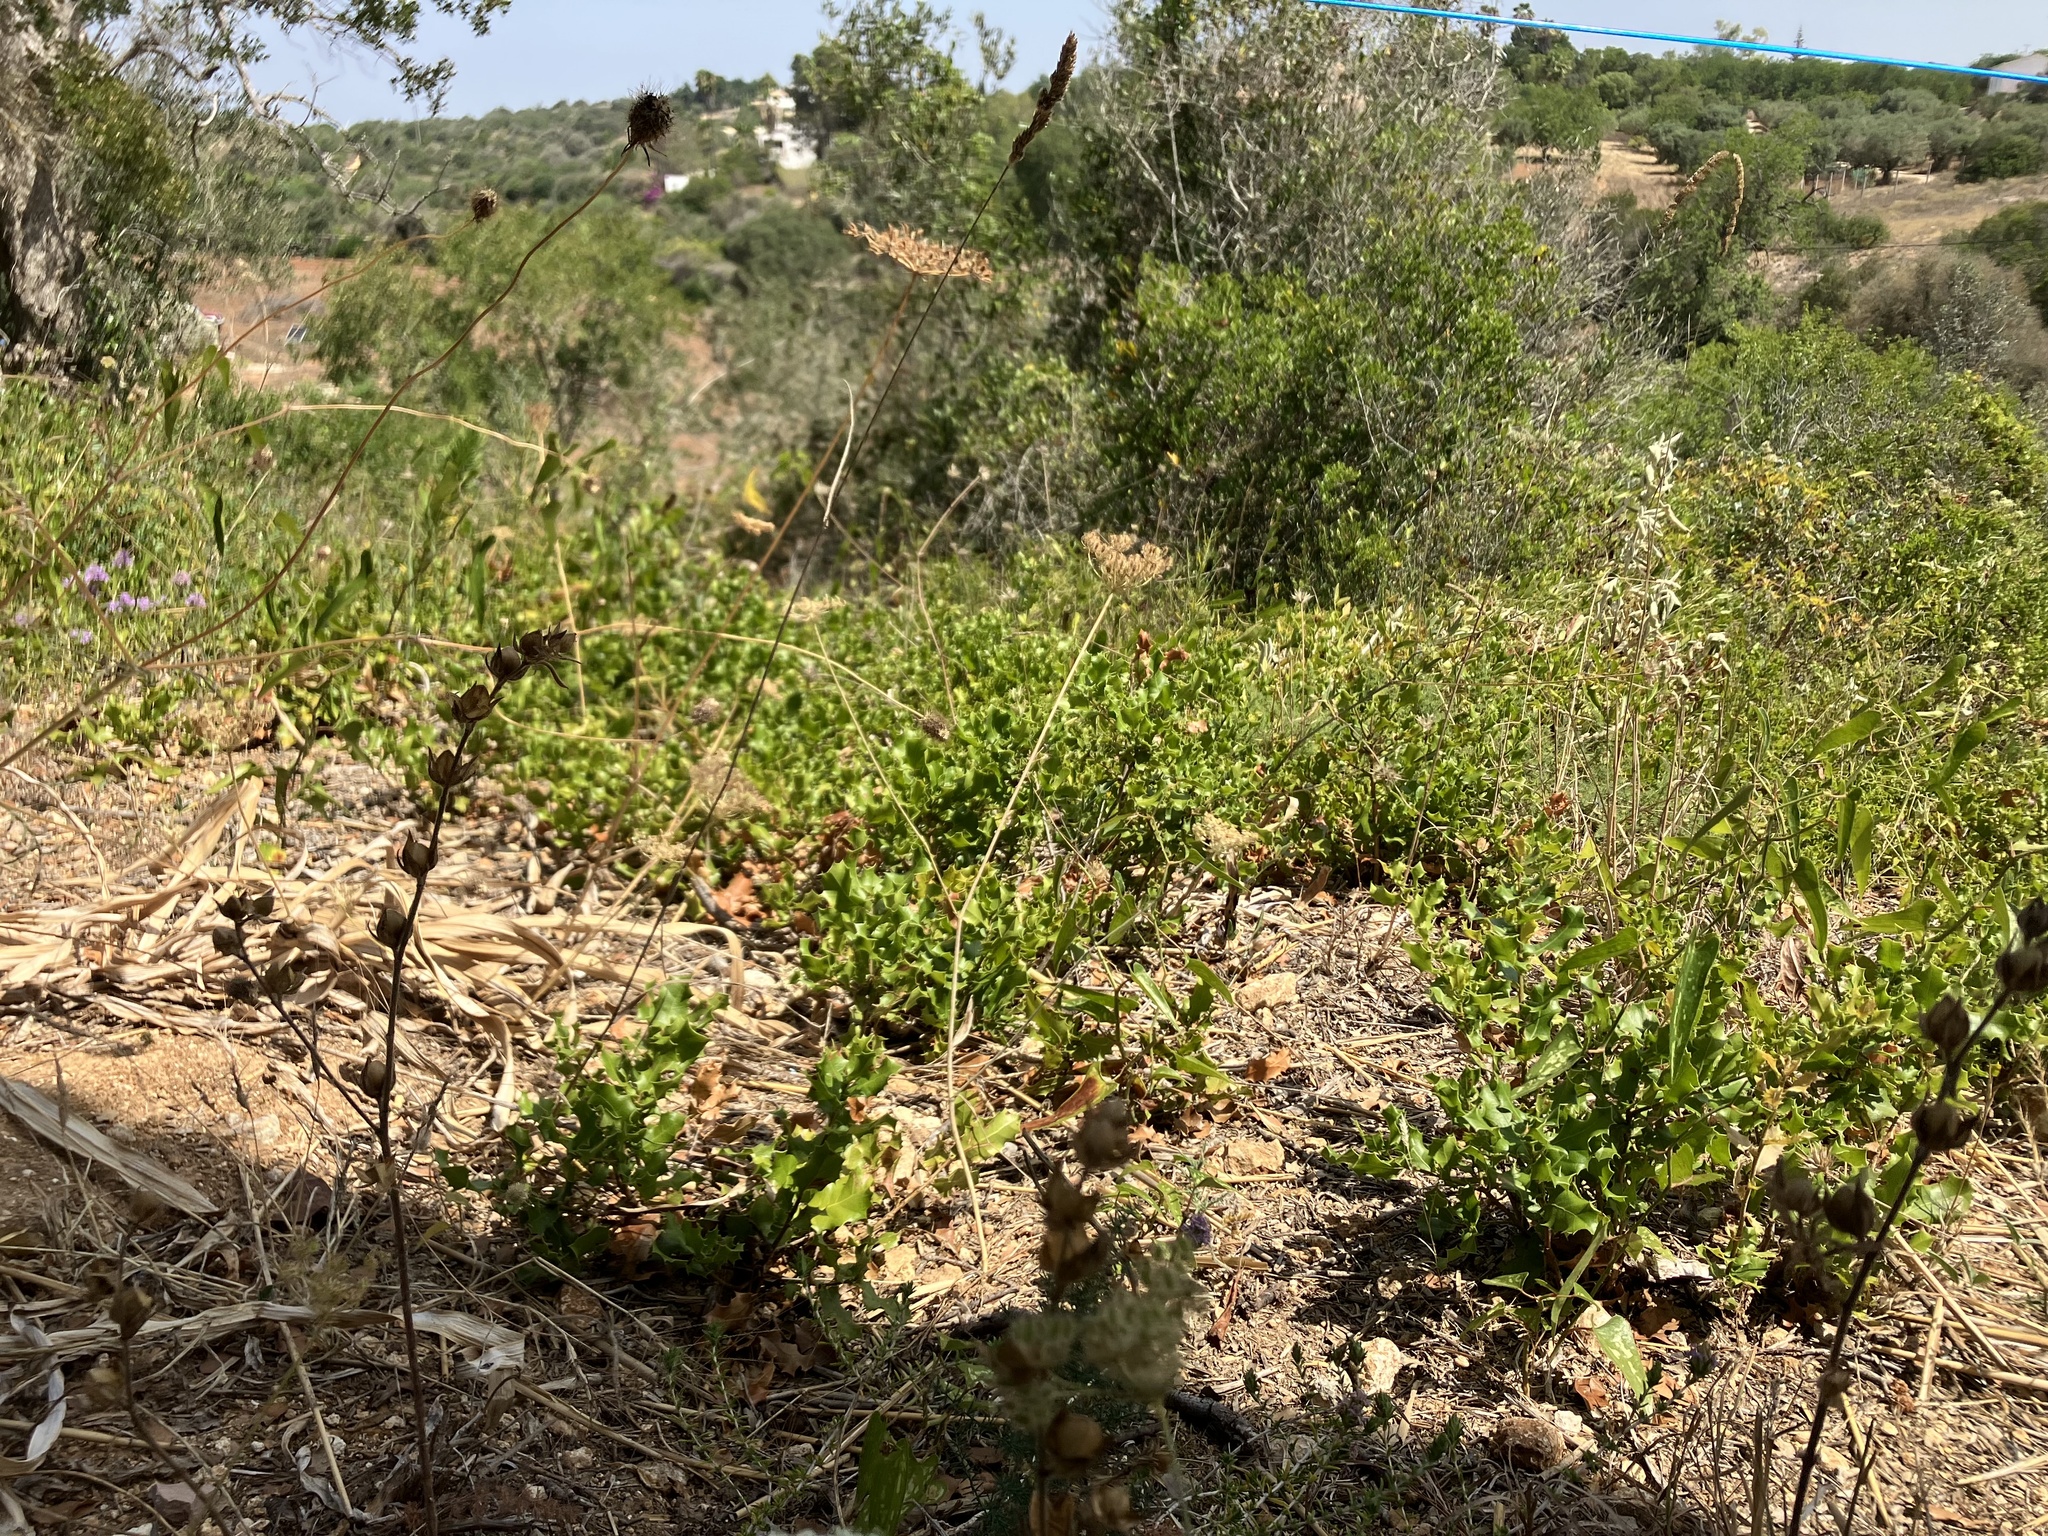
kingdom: Plantae
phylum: Tracheophyta
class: Magnoliopsida
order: Fagales
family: Fagaceae
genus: Quercus
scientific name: Quercus coccifera
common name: Kermes oak
